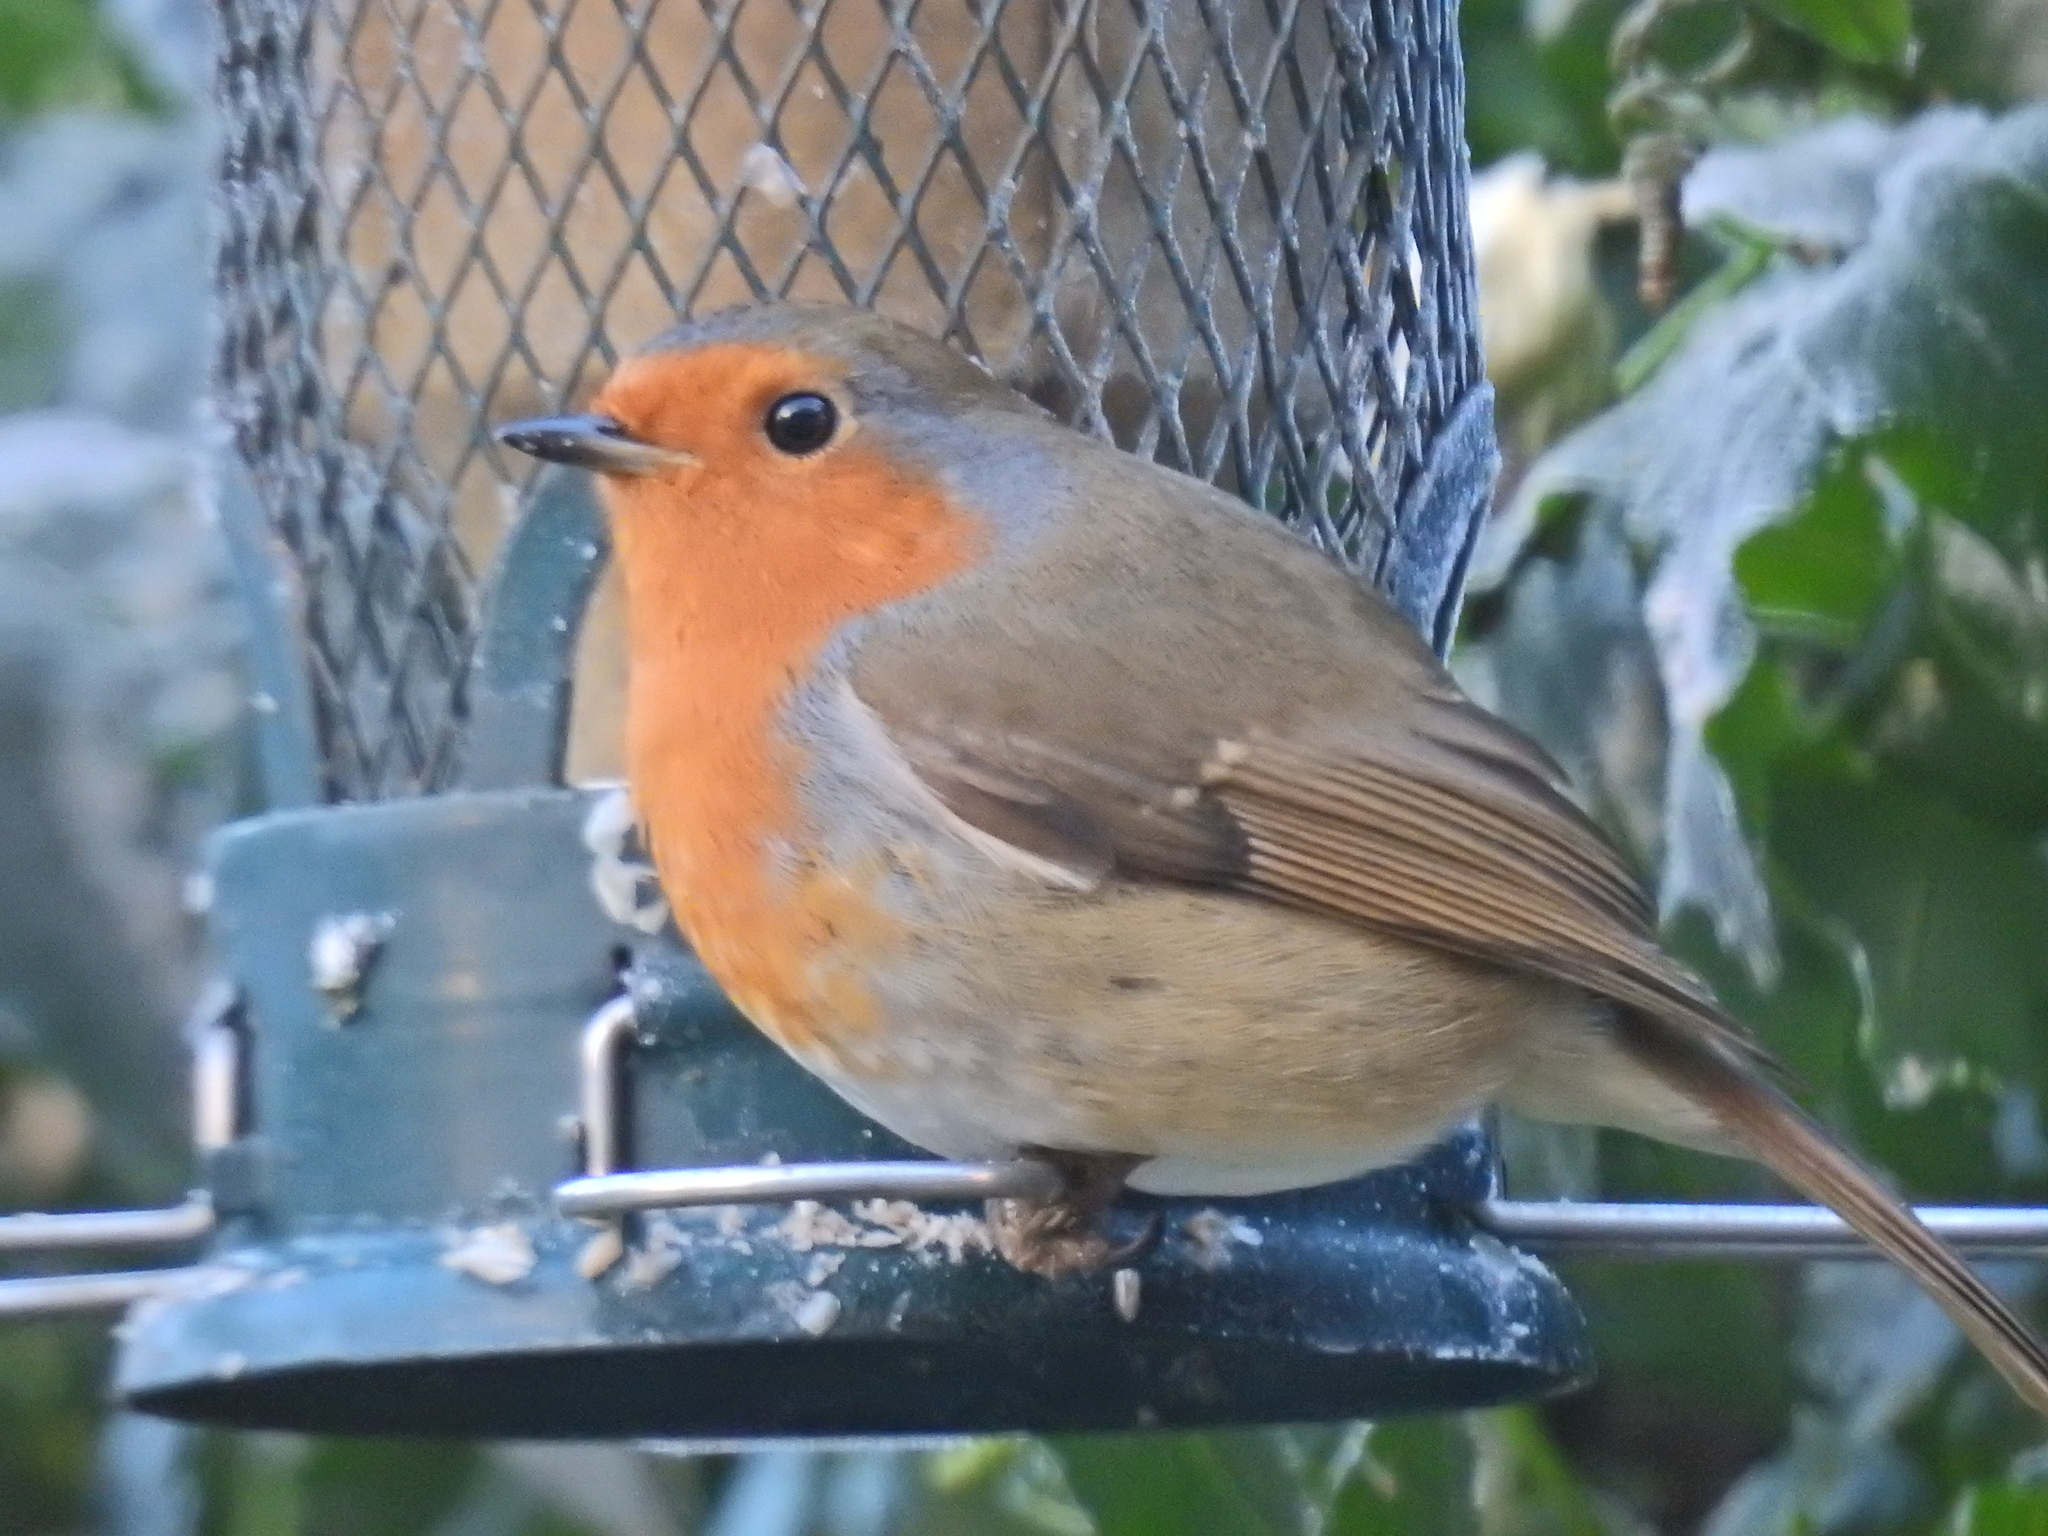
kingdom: Animalia
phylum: Chordata
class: Aves
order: Passeriformes
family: Muscicapidae
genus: Erithacus
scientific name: Erithacus rubecula
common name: European robin
